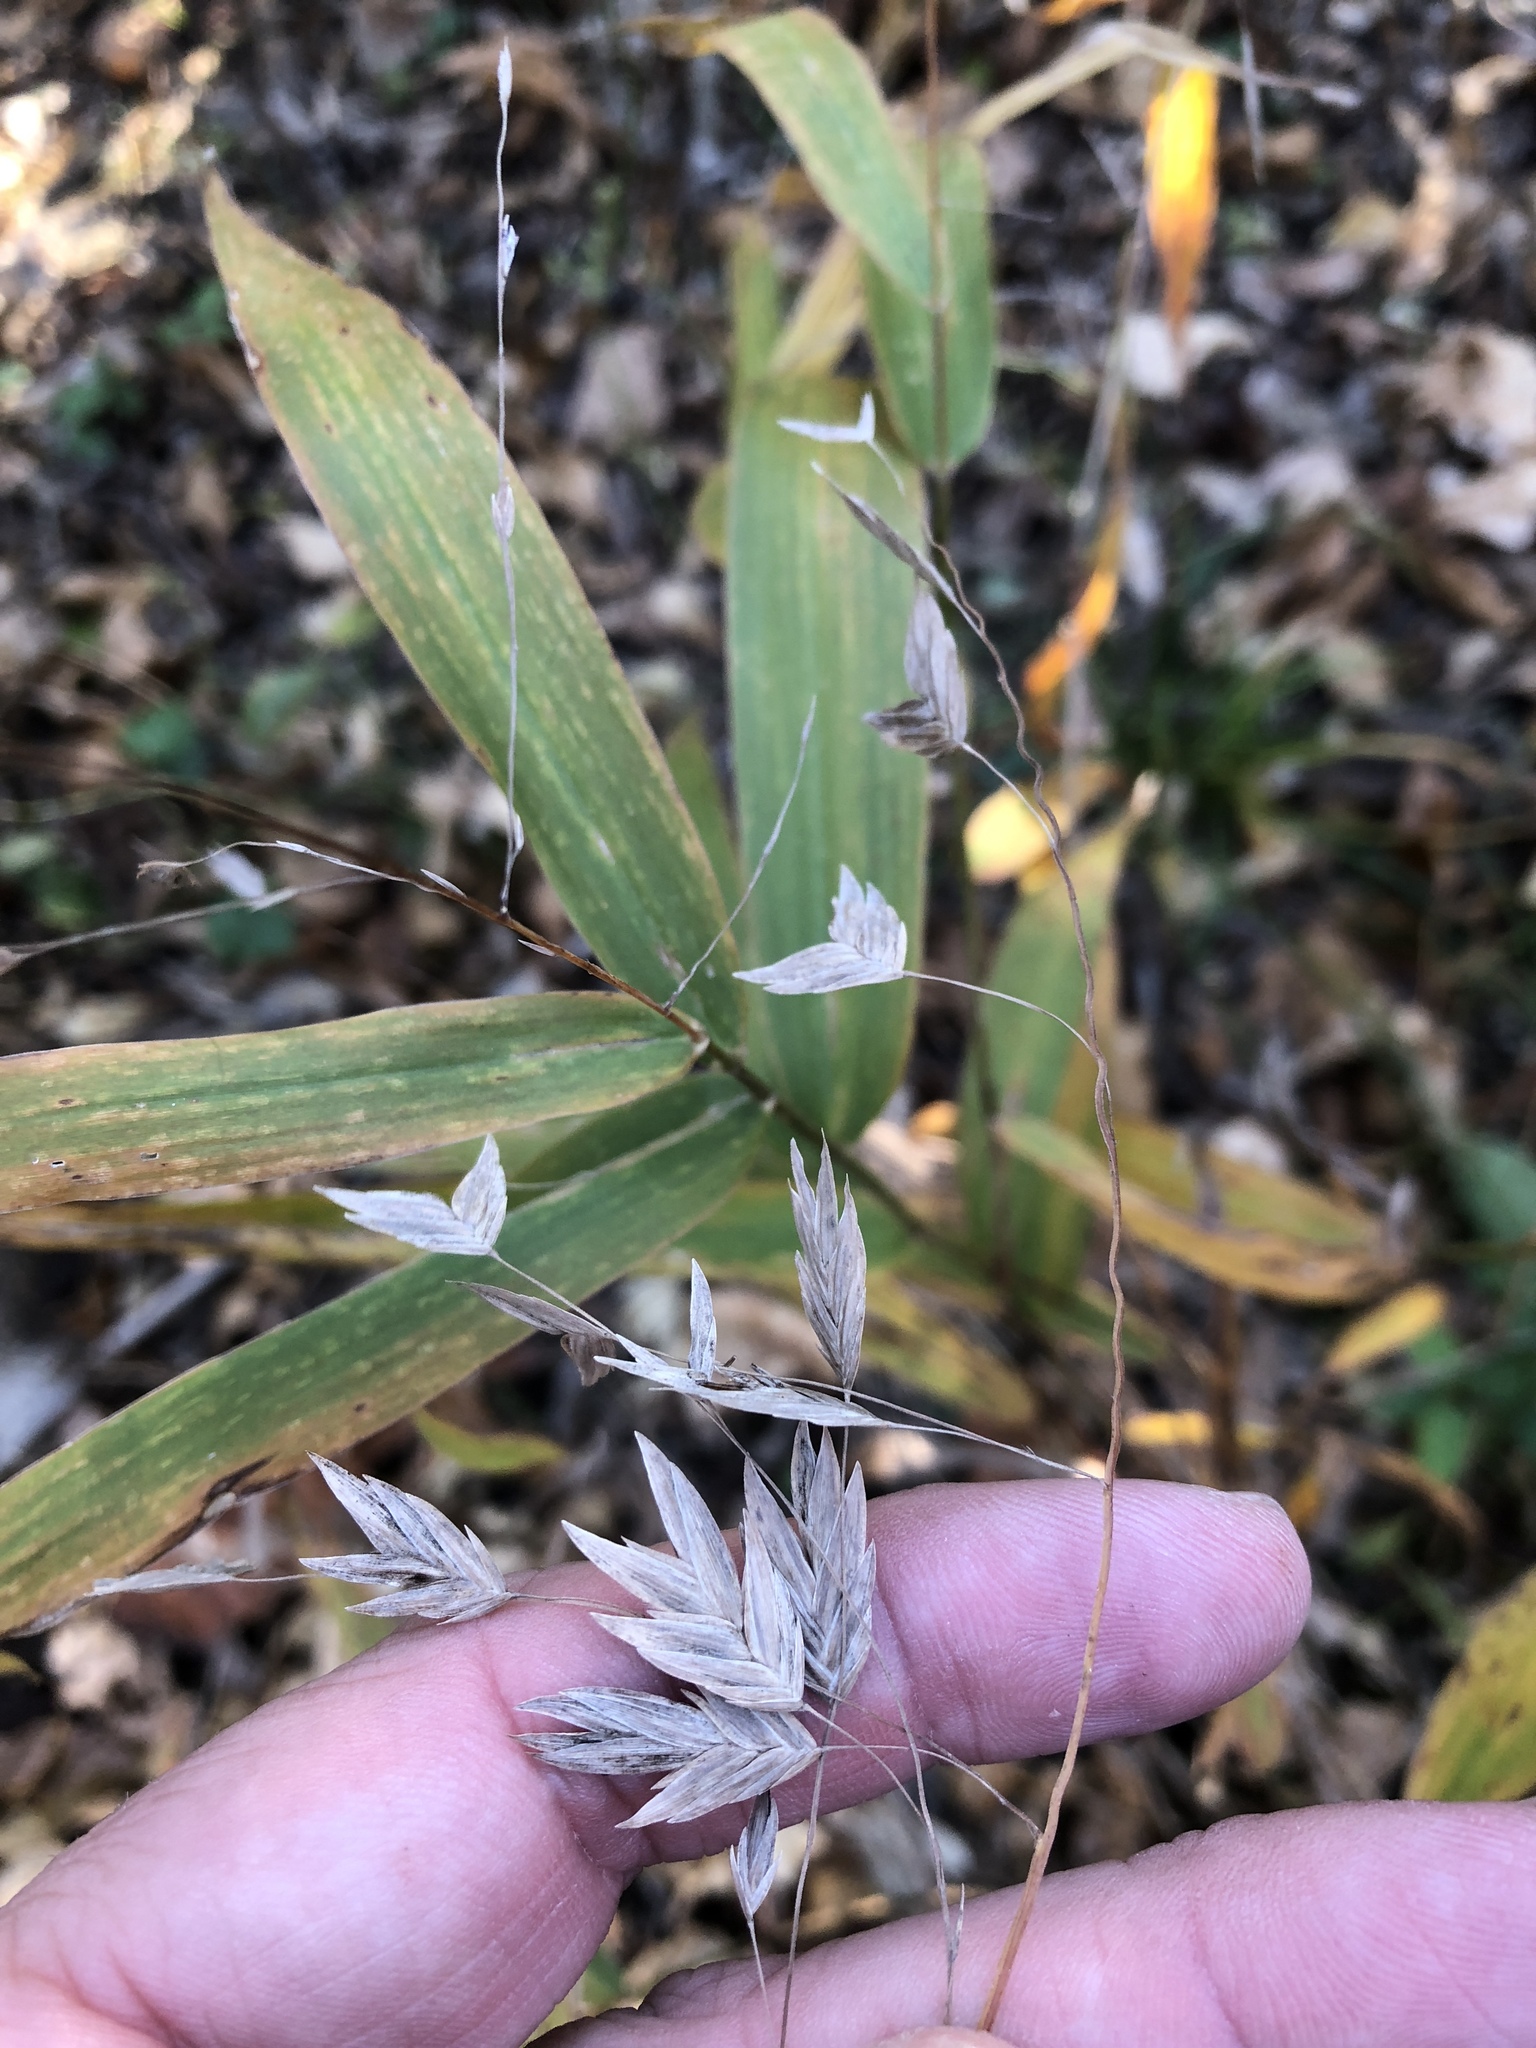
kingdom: Plantae
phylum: Tracheophyta
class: Liliopsida
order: Poales
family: Poaceae
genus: Chasmanthium
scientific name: Chasmanthium latifolium
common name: Broad-leaved chasmanthium
